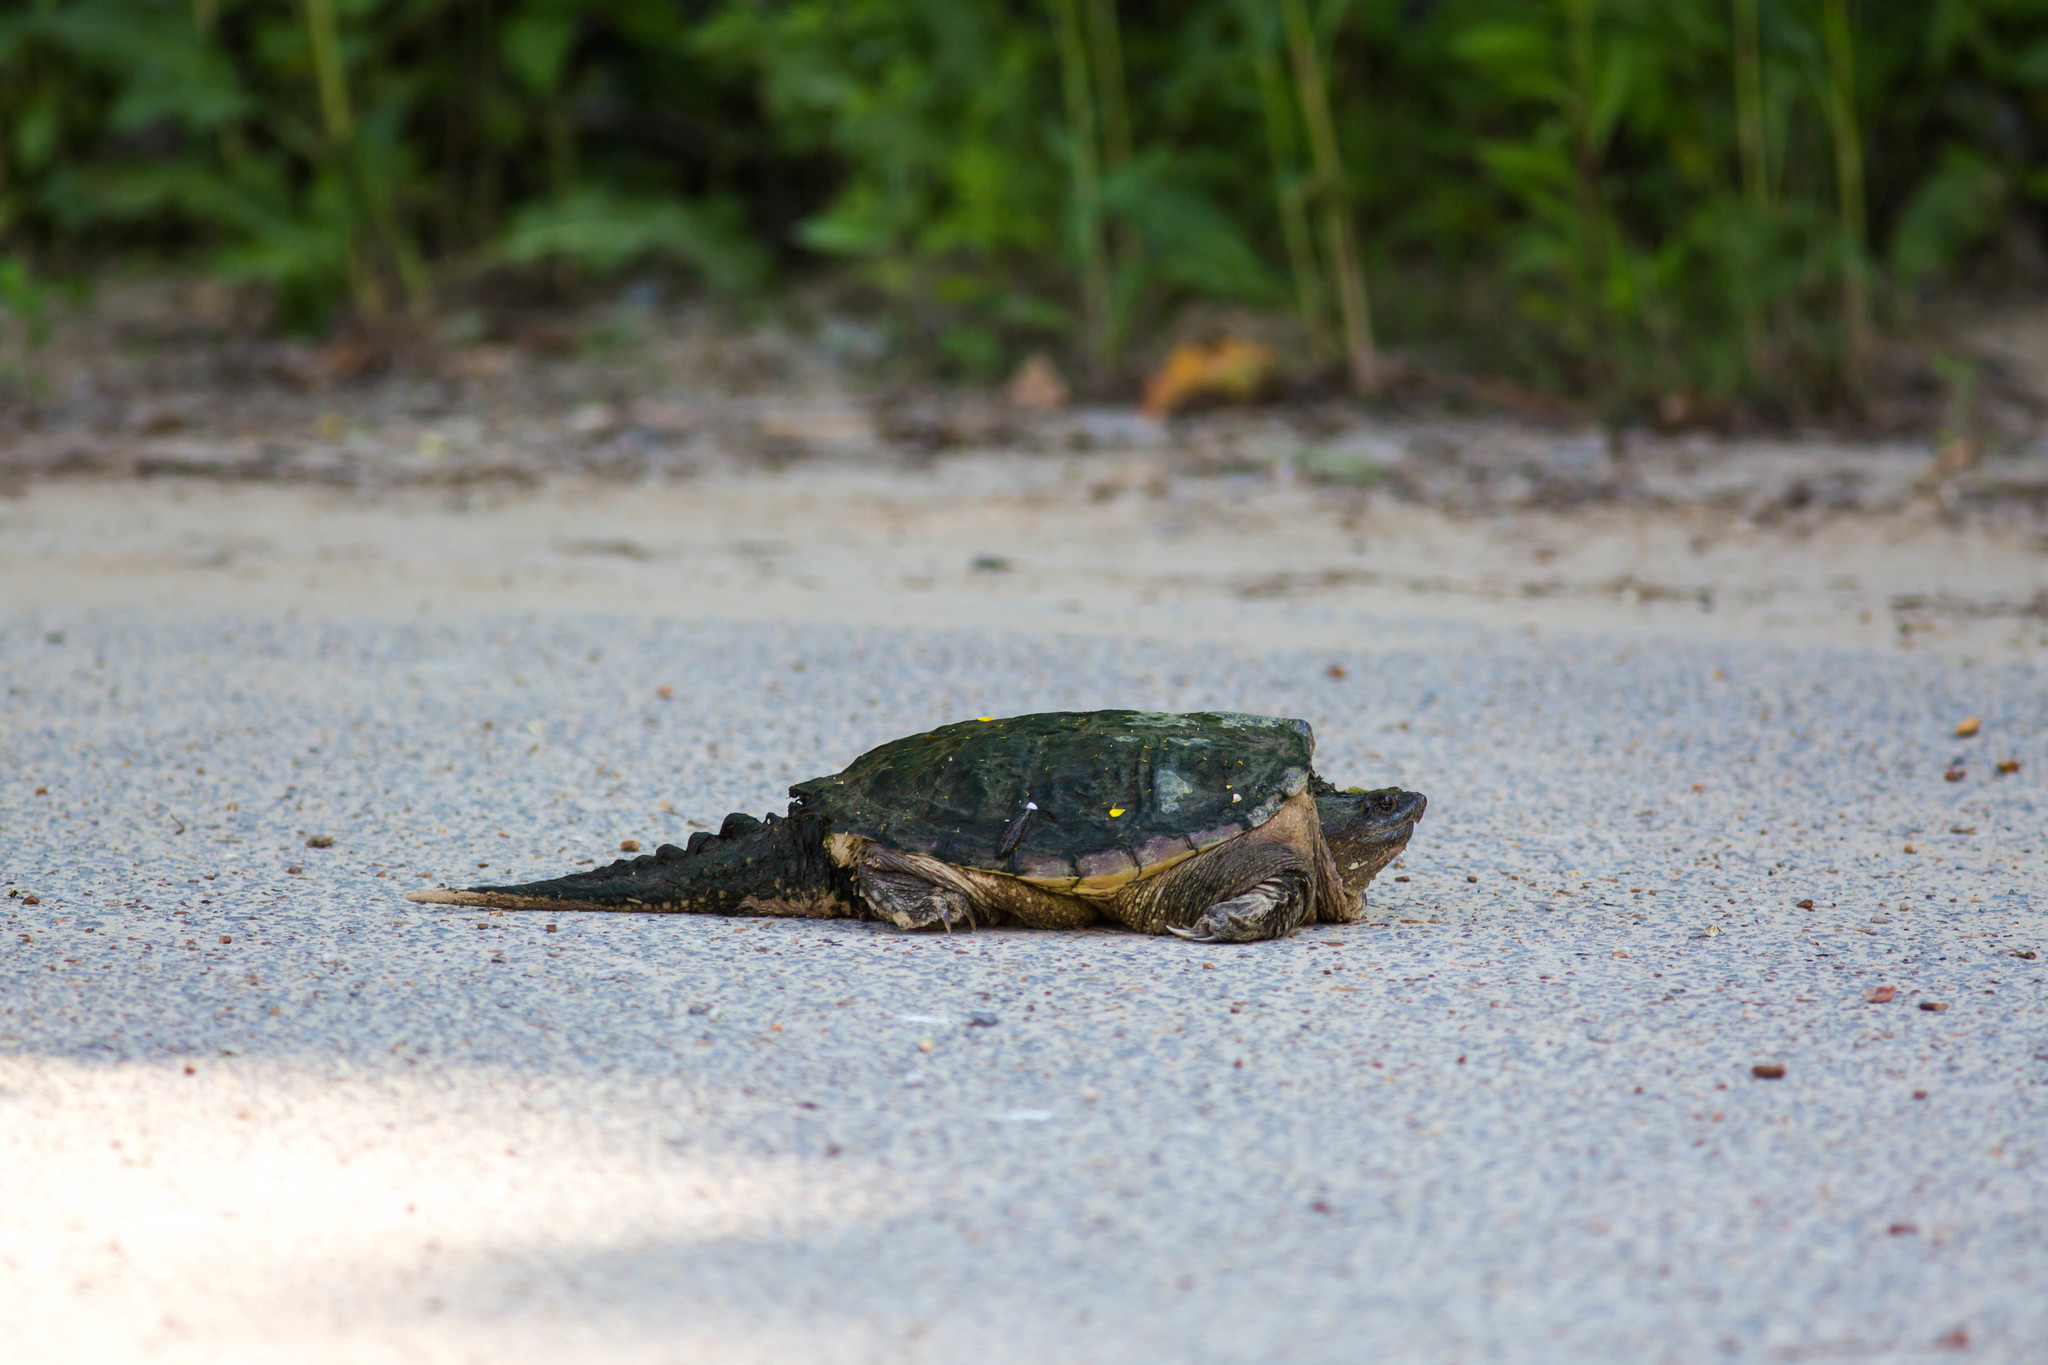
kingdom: Animalia
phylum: Chordata
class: Testudines
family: Chelydridae
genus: Chelydra
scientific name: Chelydra serpentina
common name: Common snapping turtle
